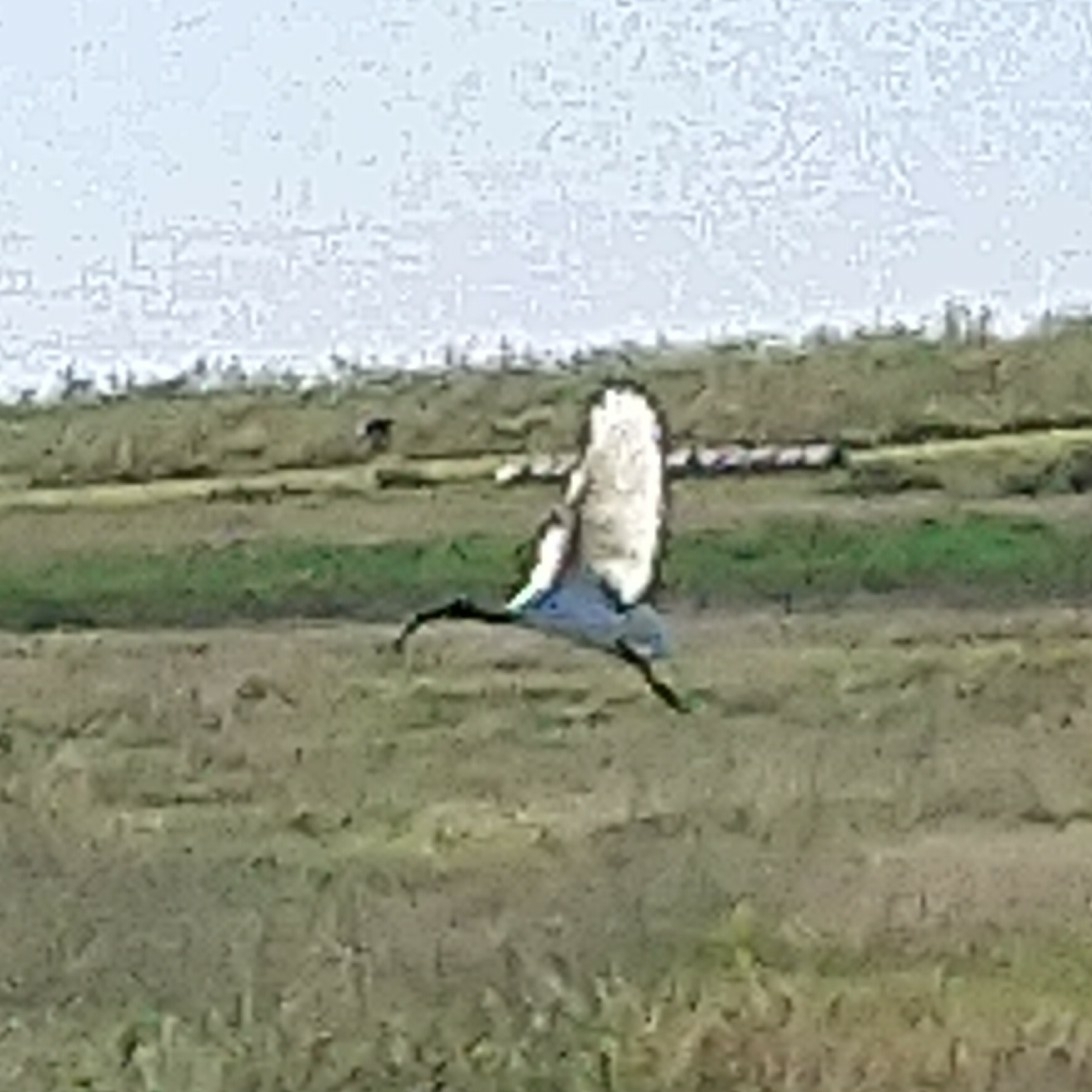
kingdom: Animalia
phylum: Chordata
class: Aves
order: Pelecaniformes
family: Threskiornithidae
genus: Threskiornis
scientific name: Threskiornis aethiopicus
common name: Sacred ibis
